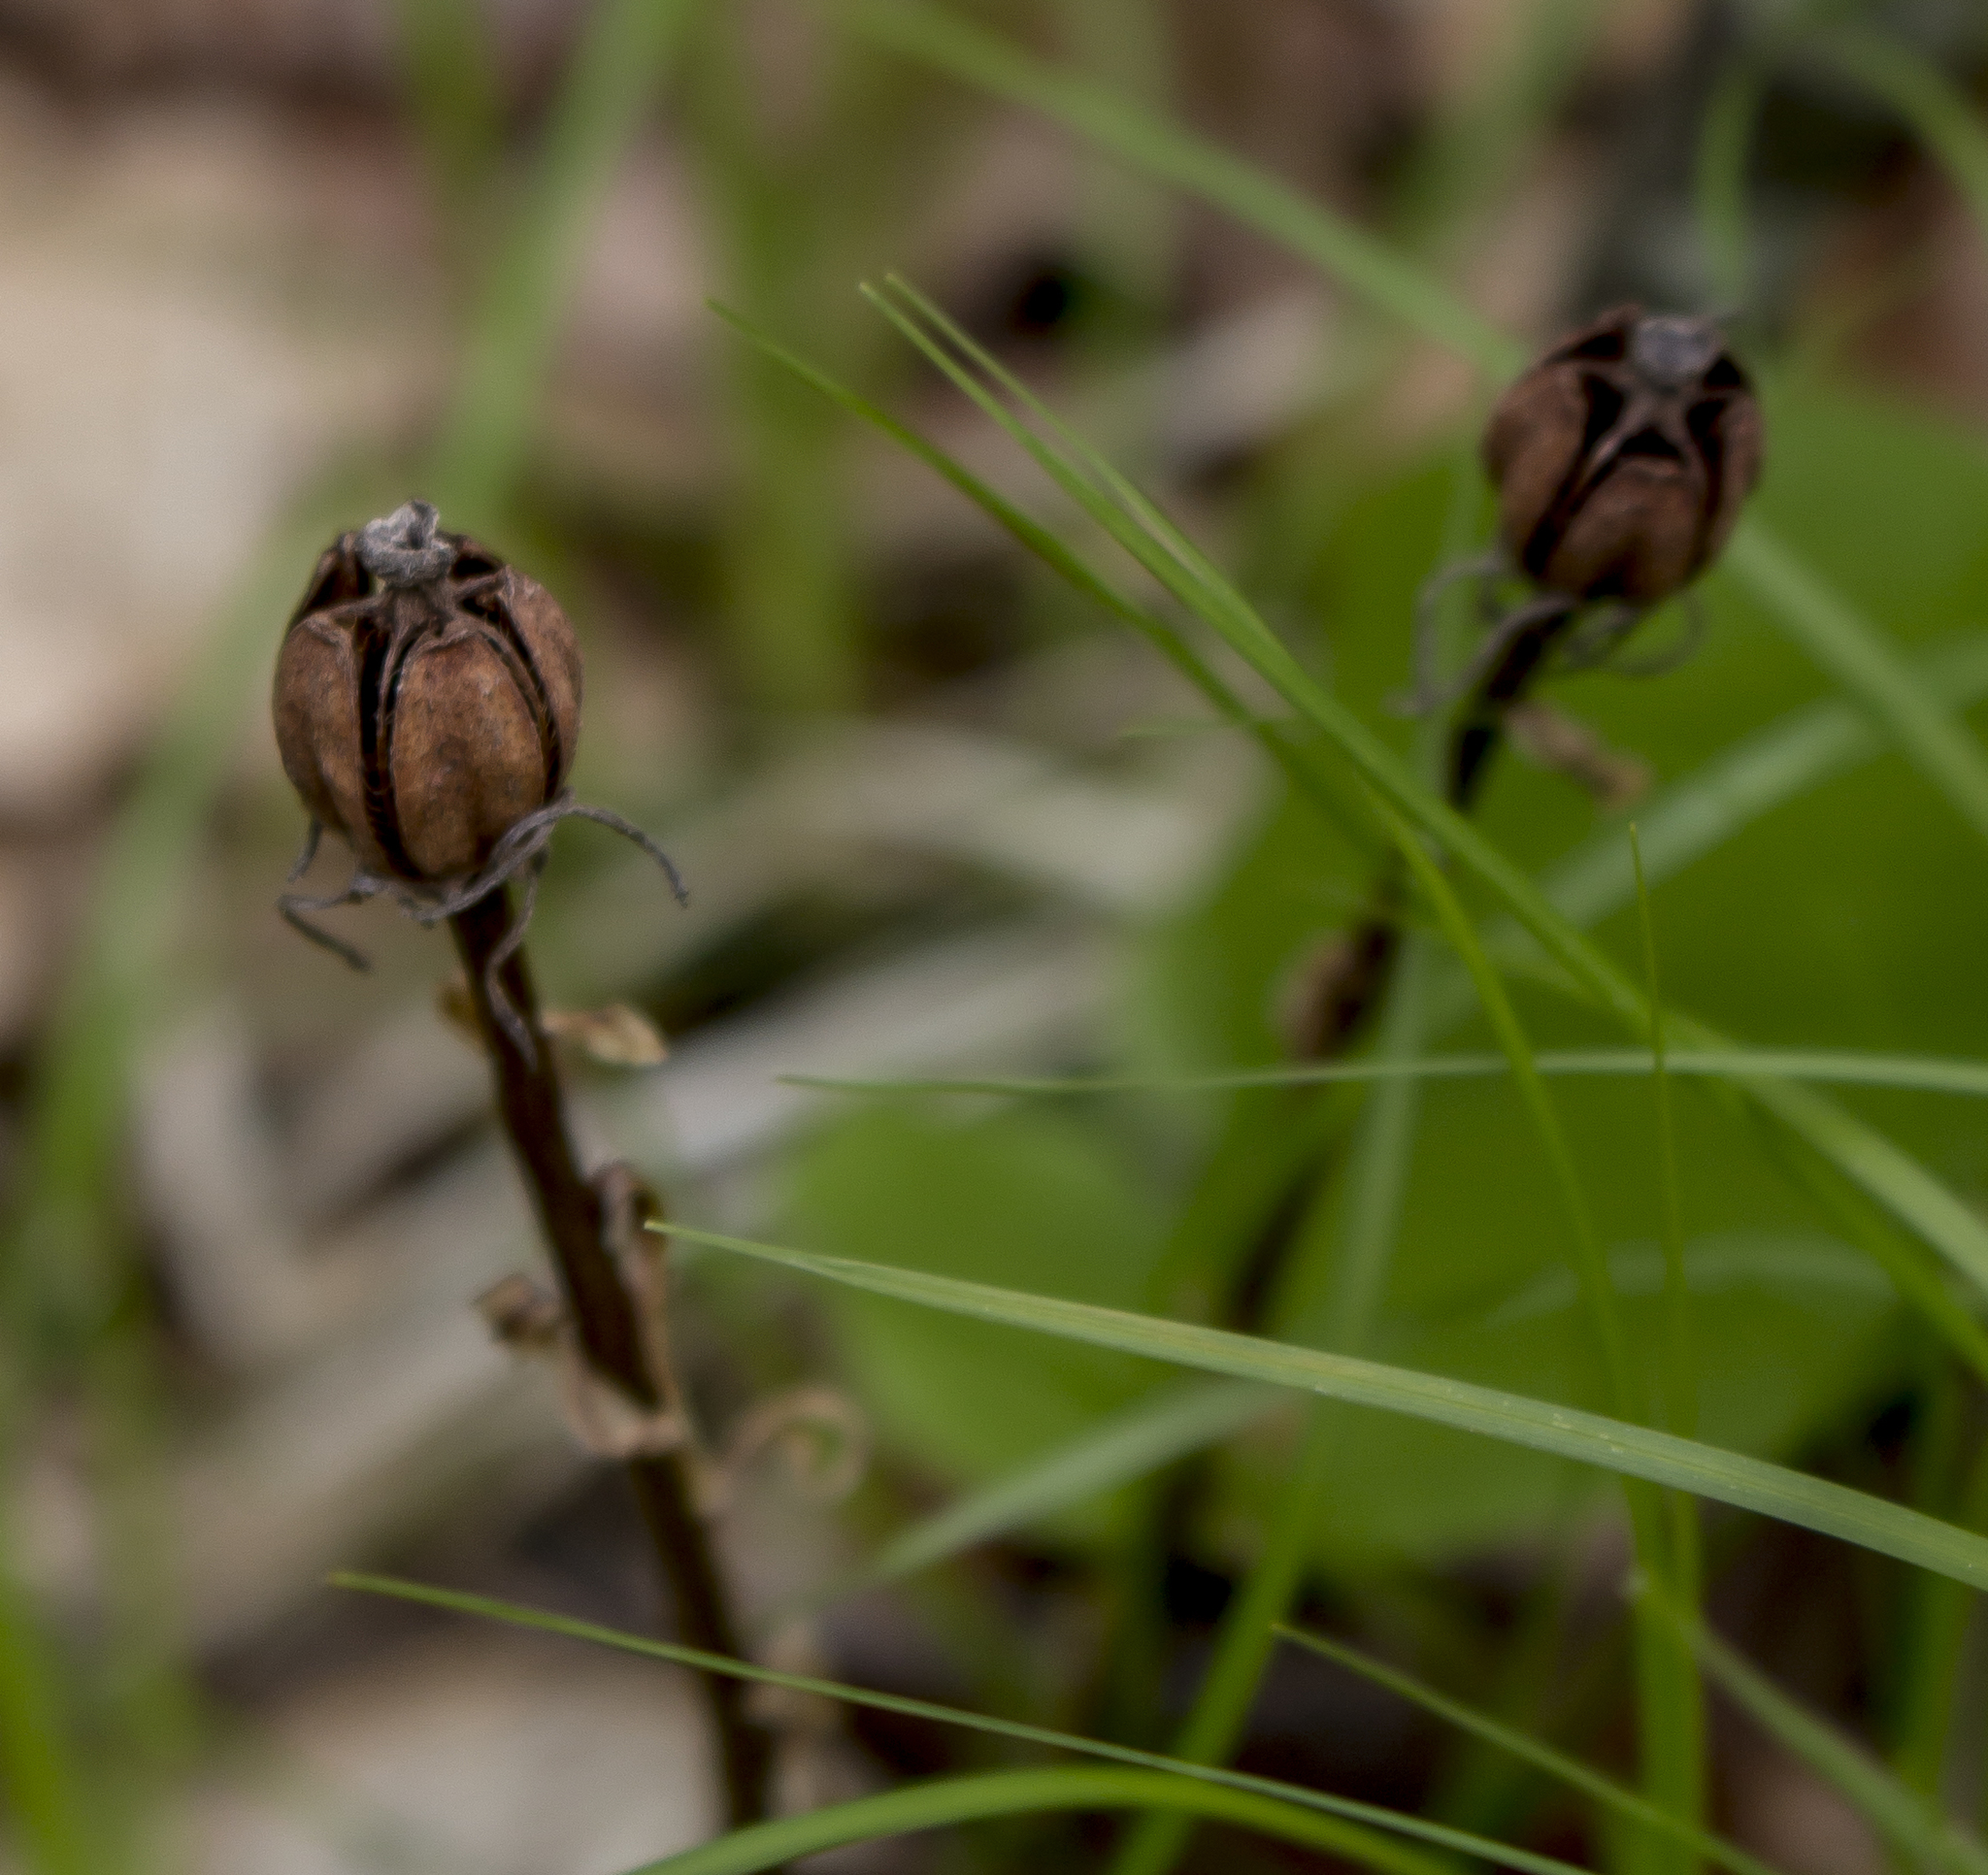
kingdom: Plantae
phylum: Tracheophyta
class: Magnoliopsida
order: Ericales
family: Ericaceae
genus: Monotropa
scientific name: Monotropa uniflora
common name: Convulsion root
